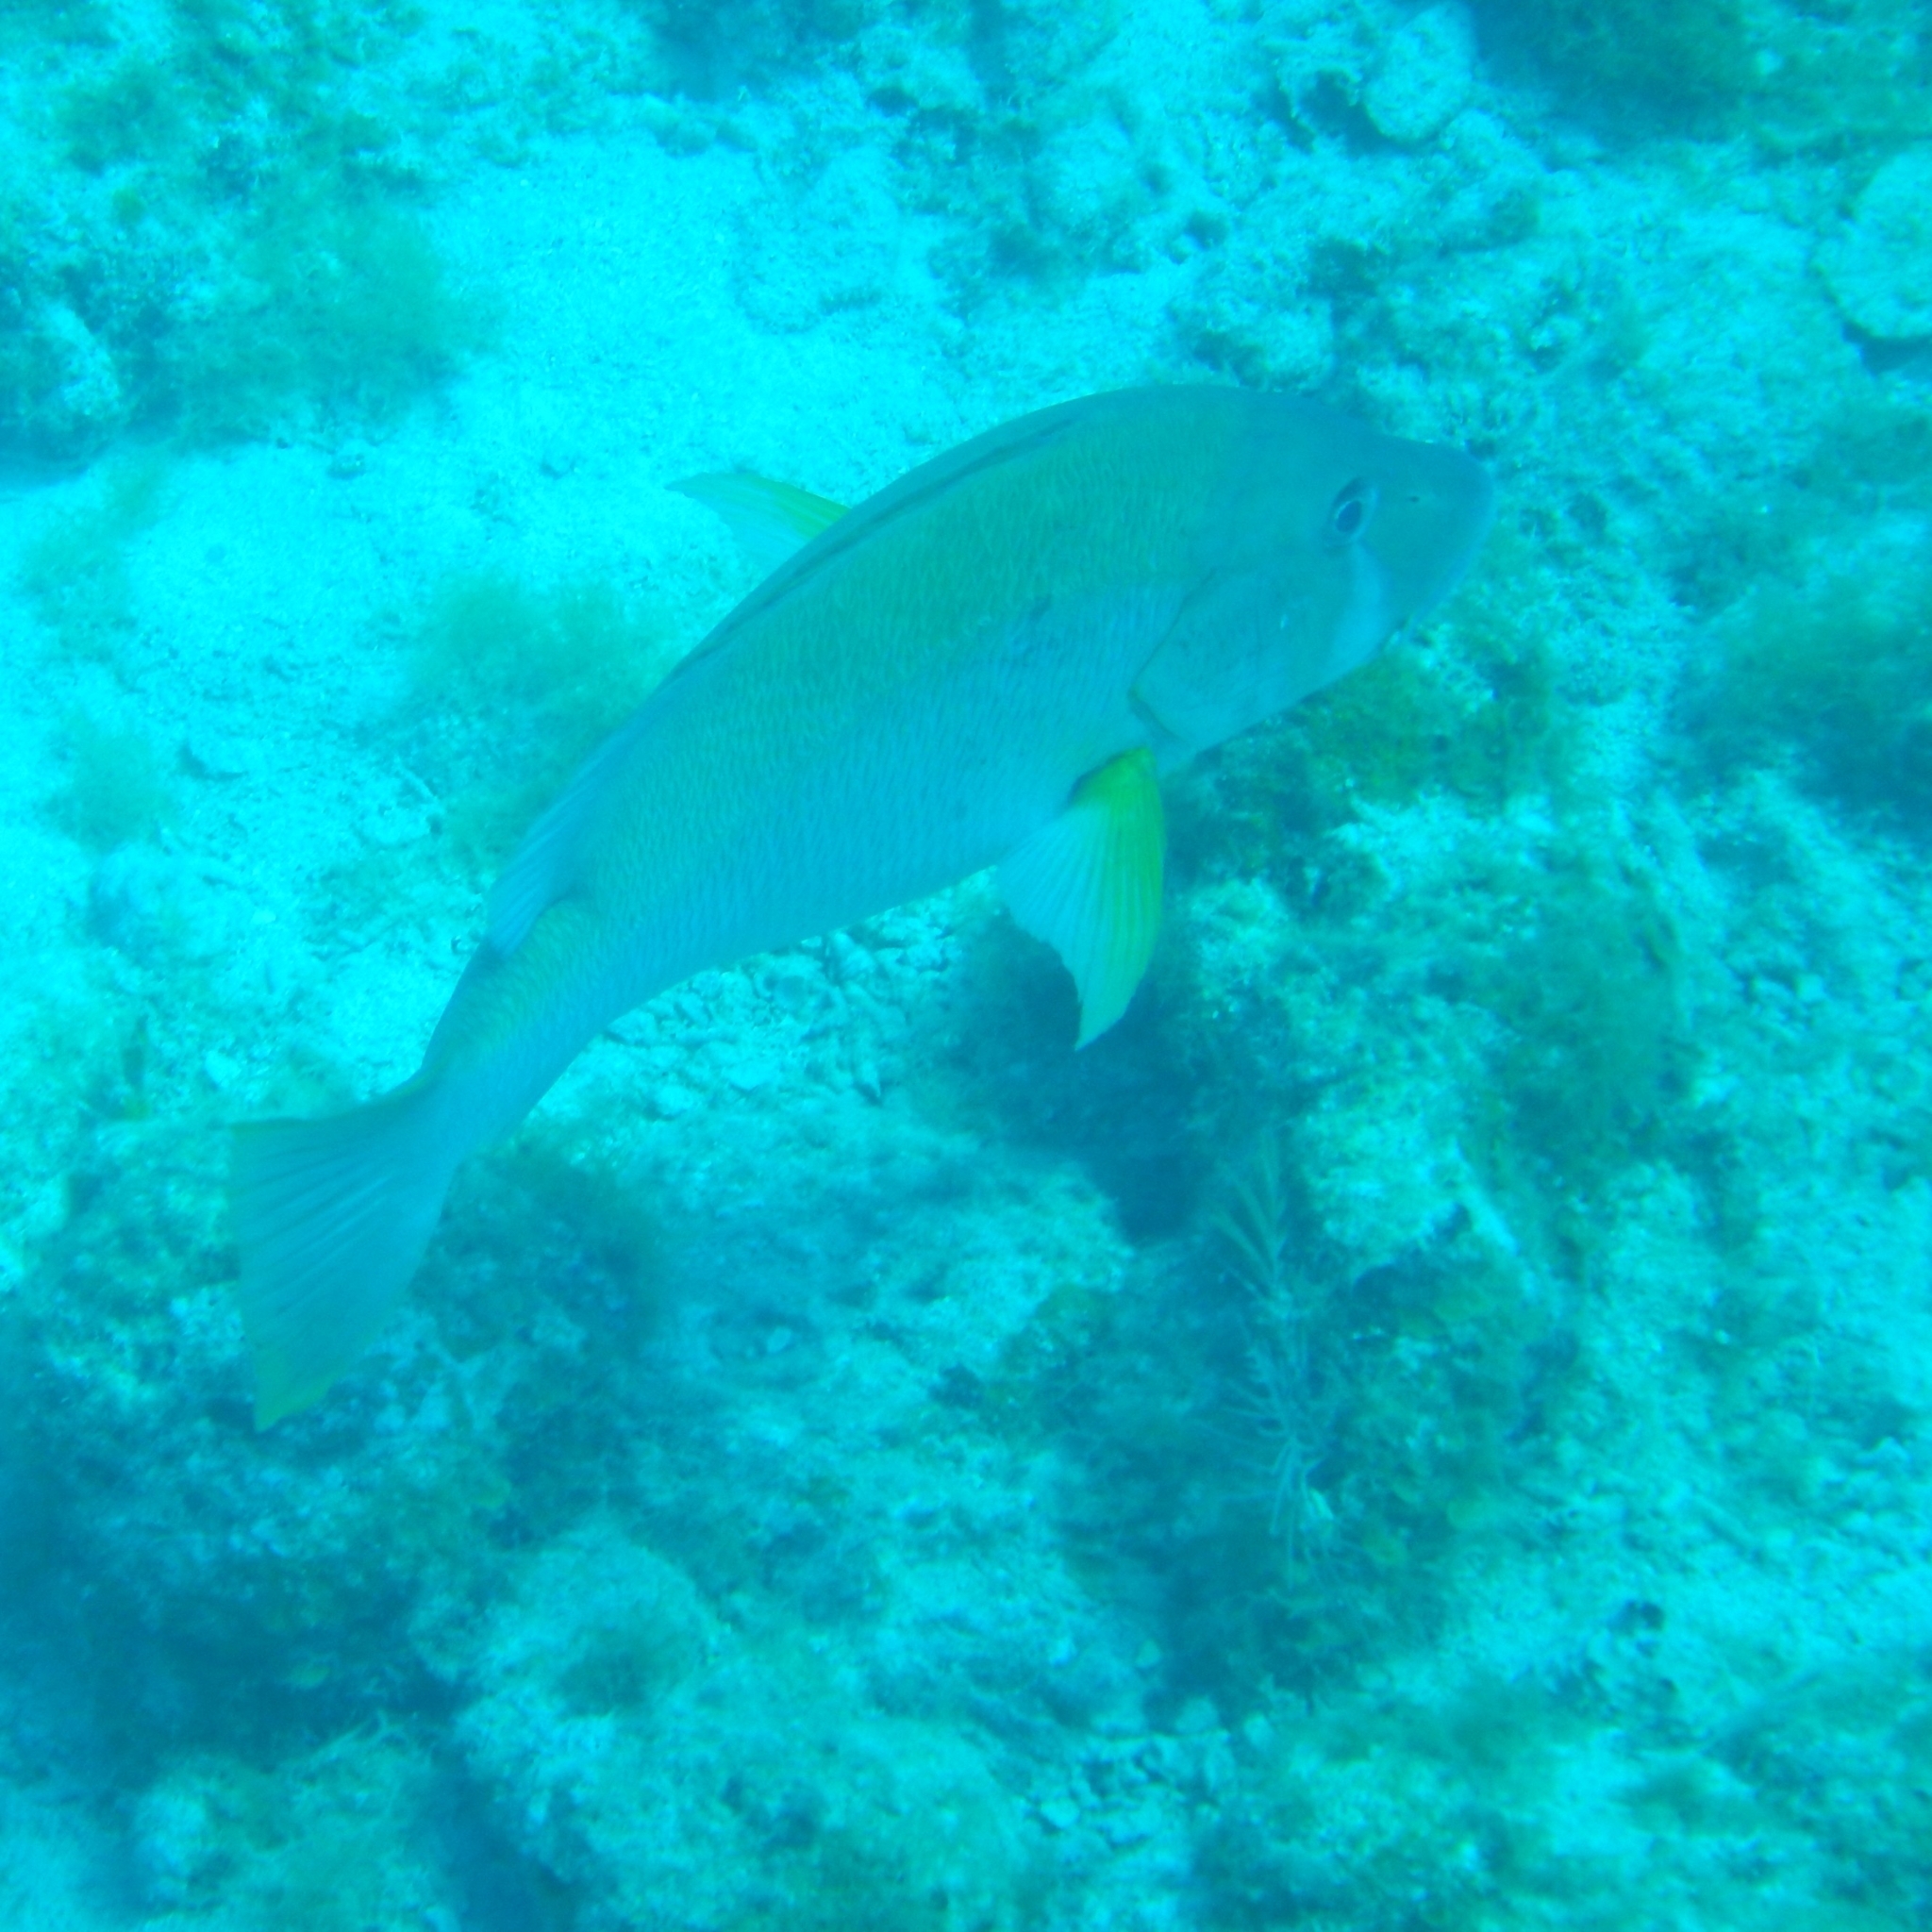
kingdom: Animalia
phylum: Chordata
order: Perciformes
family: Lutjanidae
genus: Lutjanus
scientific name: Lutjanus jocu
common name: Dog snapper
